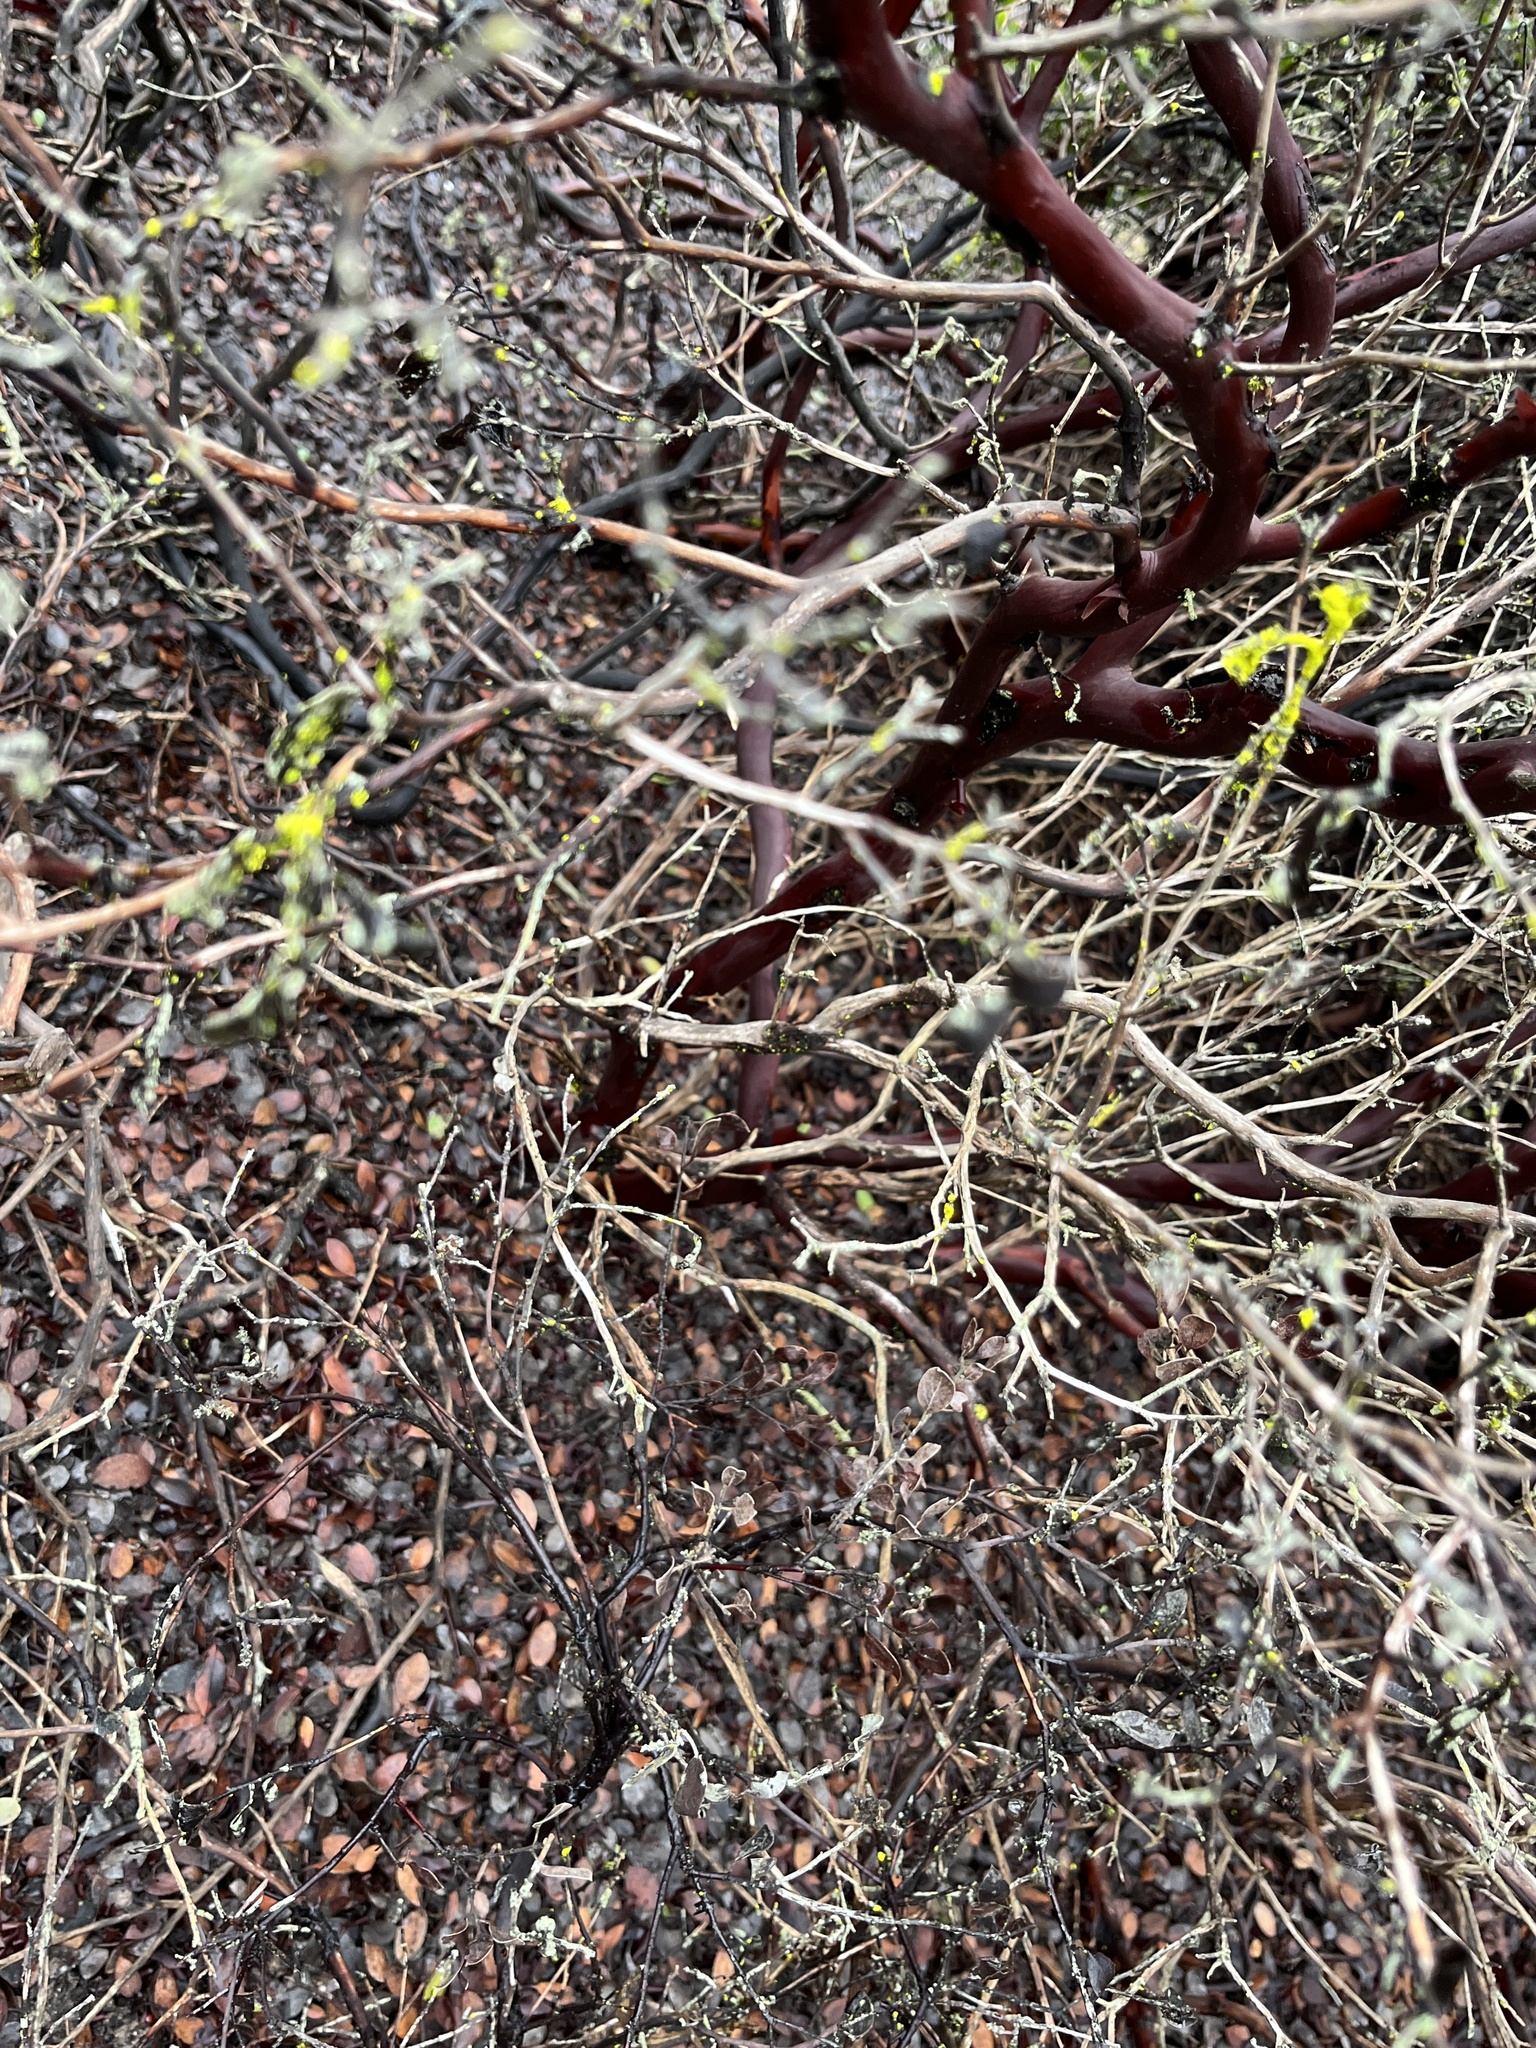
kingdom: Plantae
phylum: Tracheophyta
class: Magnoliopsida
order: Ericales
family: Ericaceae
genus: Arctostaphylos
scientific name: Arctostaphylos hookeri
